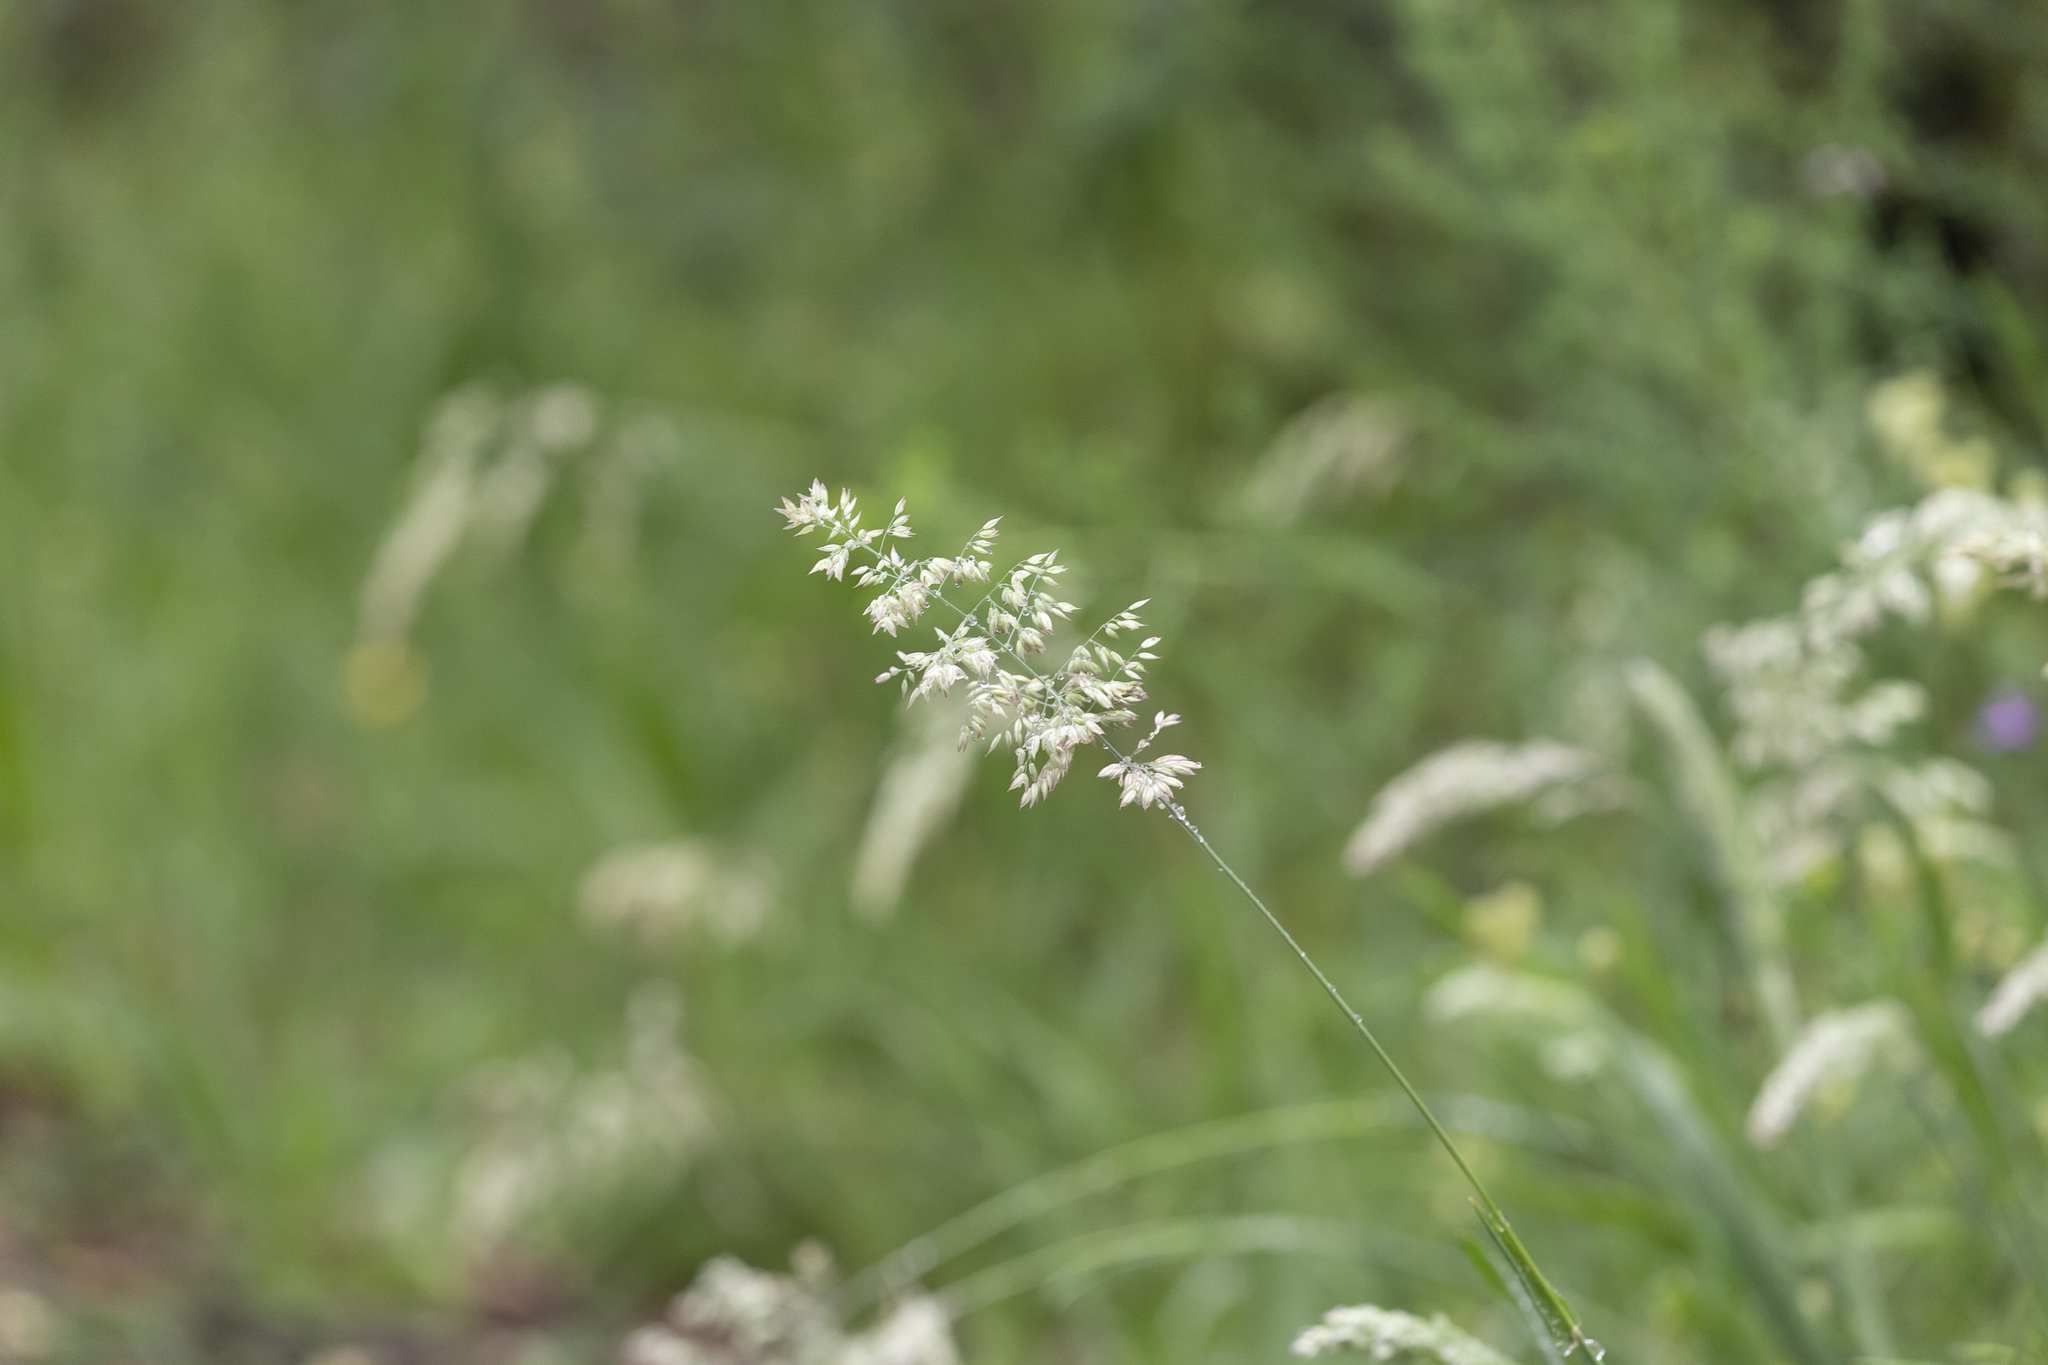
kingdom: Plantae
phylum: Tracheophyta
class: Liliopsida
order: Poales
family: Poaceae
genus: Holcus
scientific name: Holcus lanatus
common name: Yorkshire-fog
